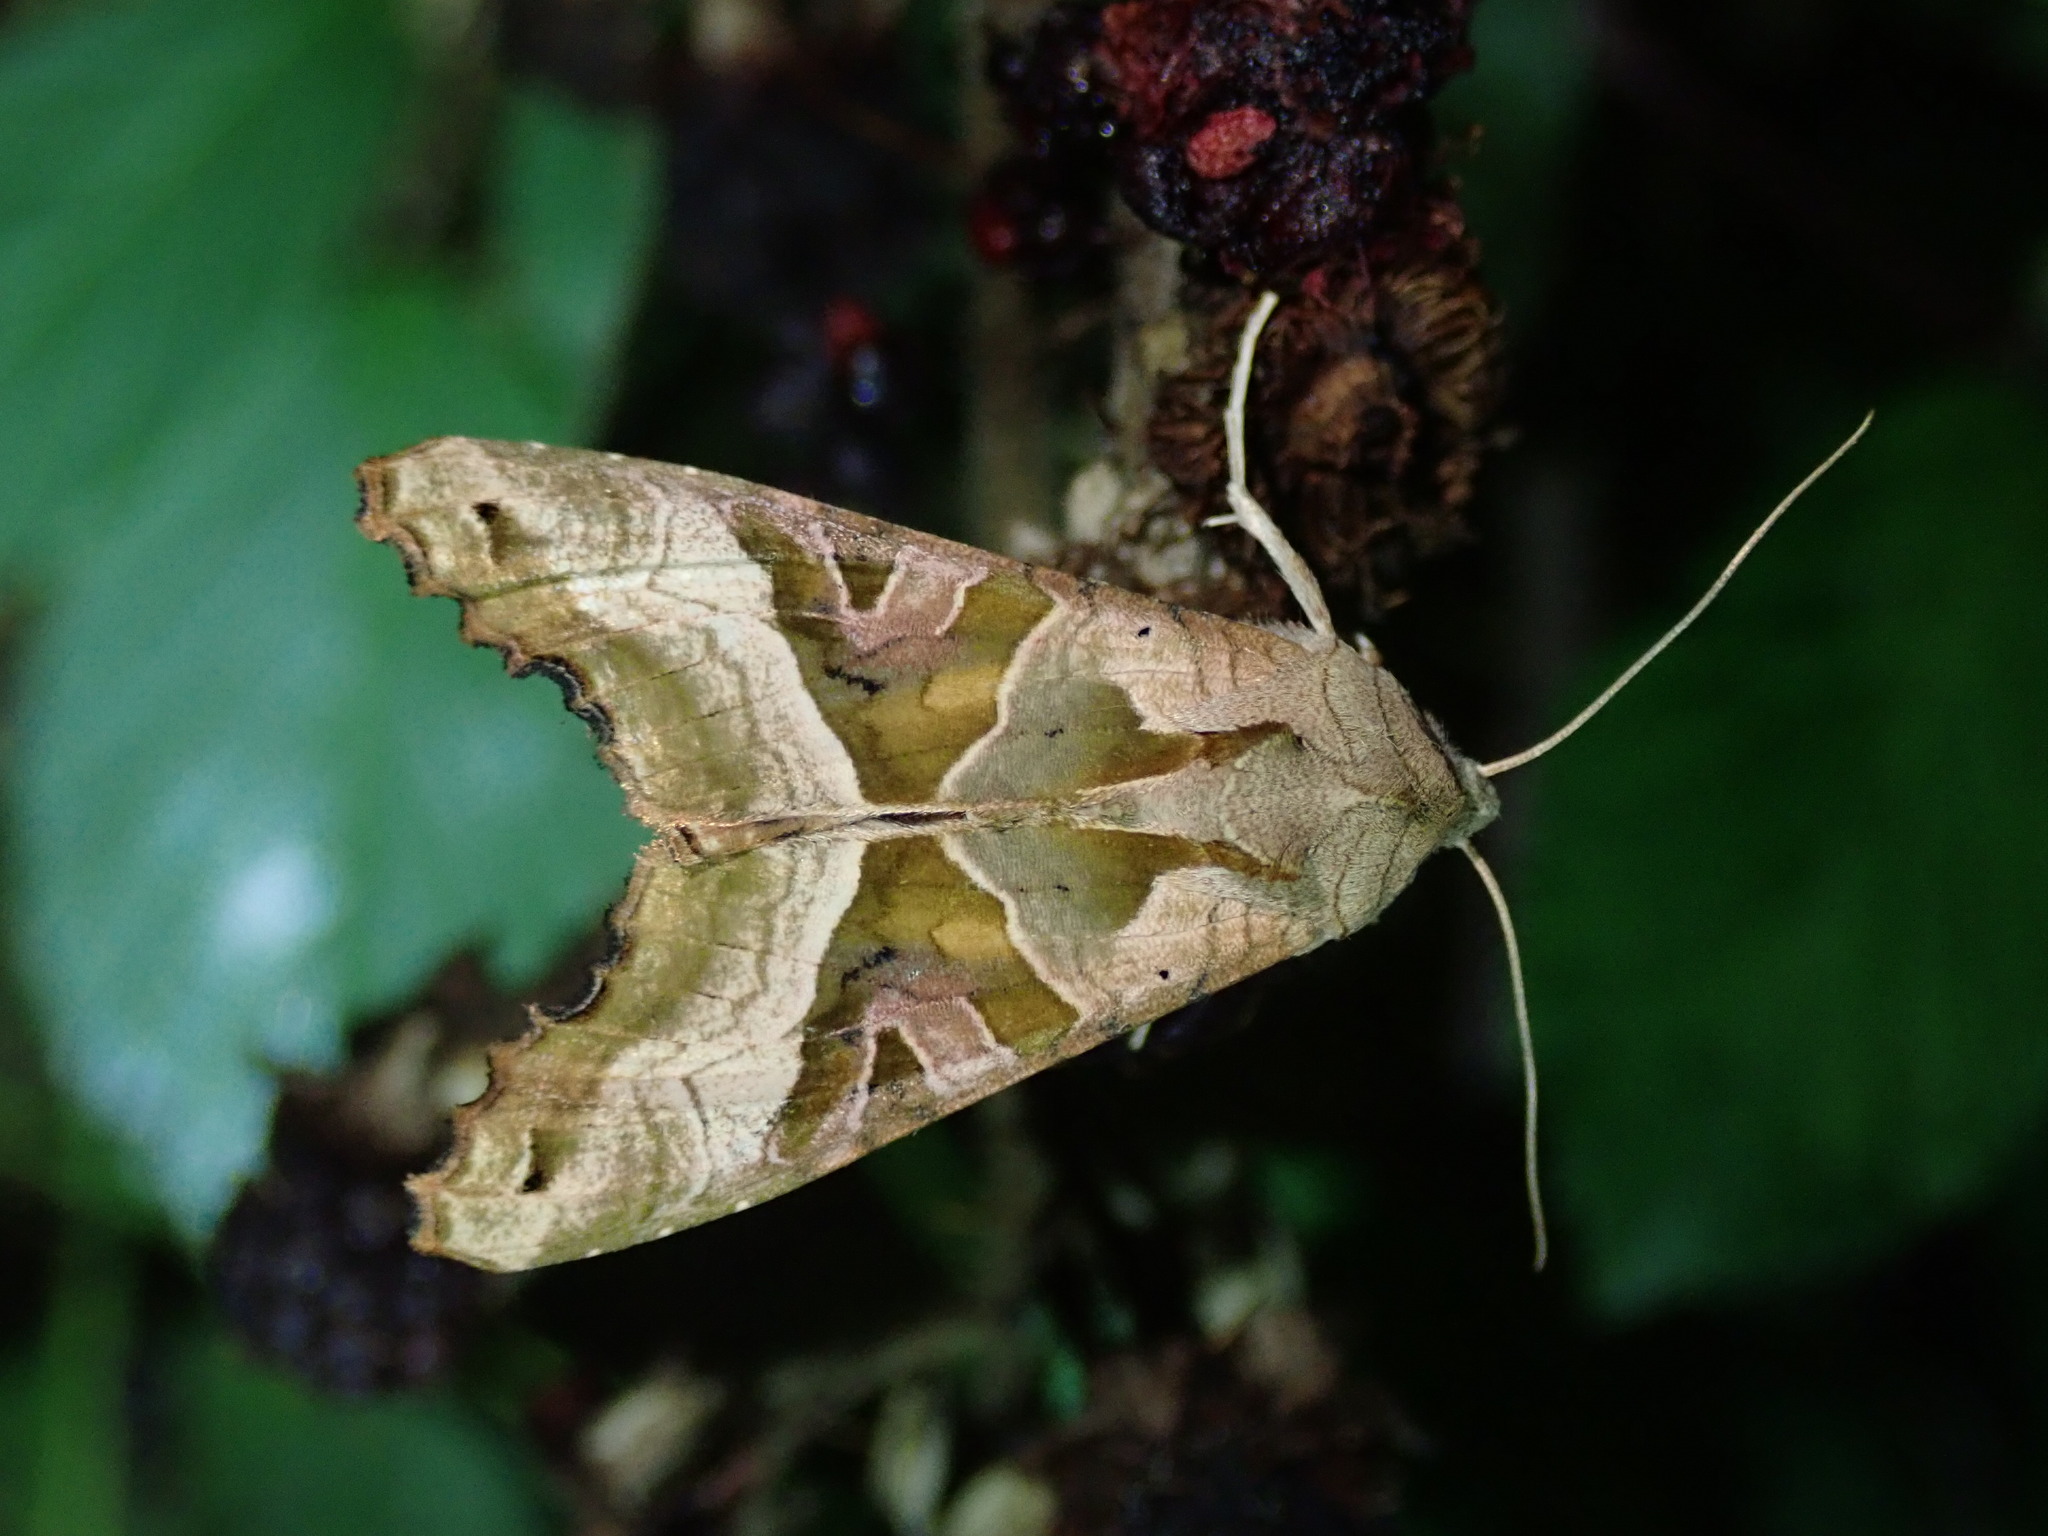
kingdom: Animalia
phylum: Arthropoda
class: Insecta
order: Lepidoptera
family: Noctuidae
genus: Phlogophora
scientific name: Phlogophora meticulosa
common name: Angle shades
